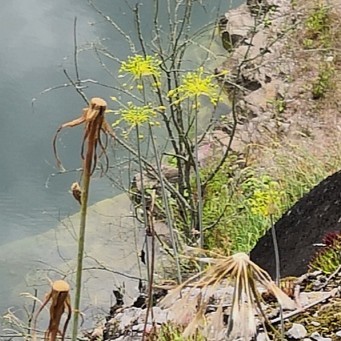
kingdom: Plantae
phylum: Tracheophyta
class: Liliopsida
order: Asparagales
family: Amaryllidaceae
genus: Allium
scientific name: Allium flavum
